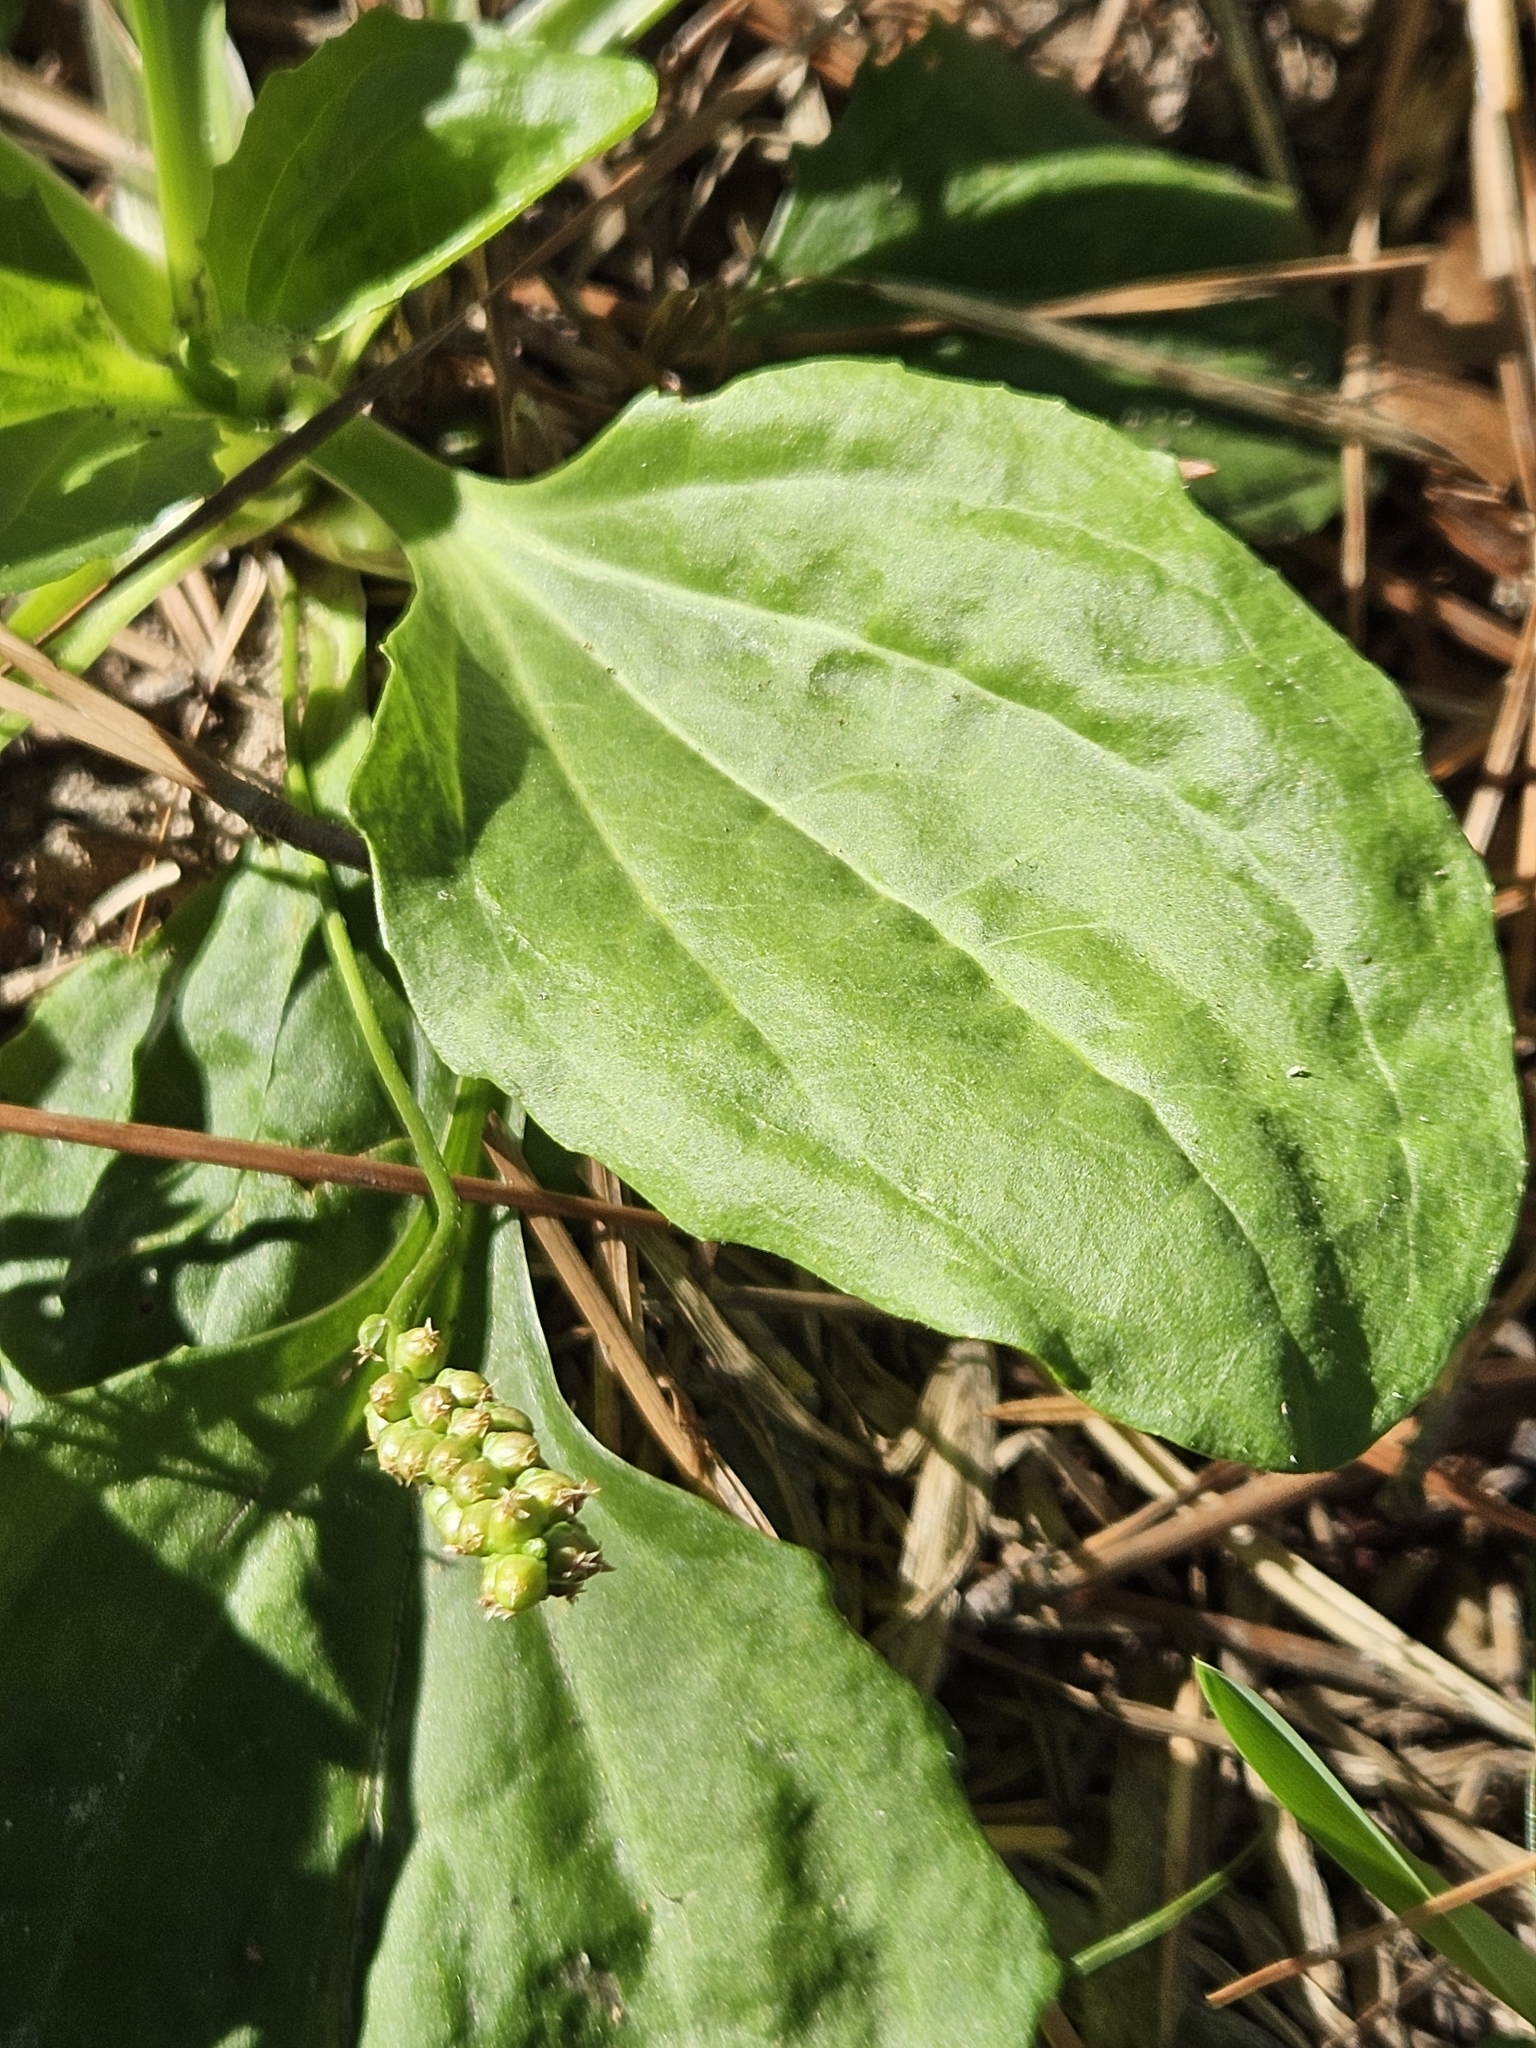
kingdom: Plantae
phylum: Tracheophyta
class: Magnoliopsida
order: Lamiales
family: Plantaginaceae
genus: Plantago
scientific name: Plantago major
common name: Common plantain
